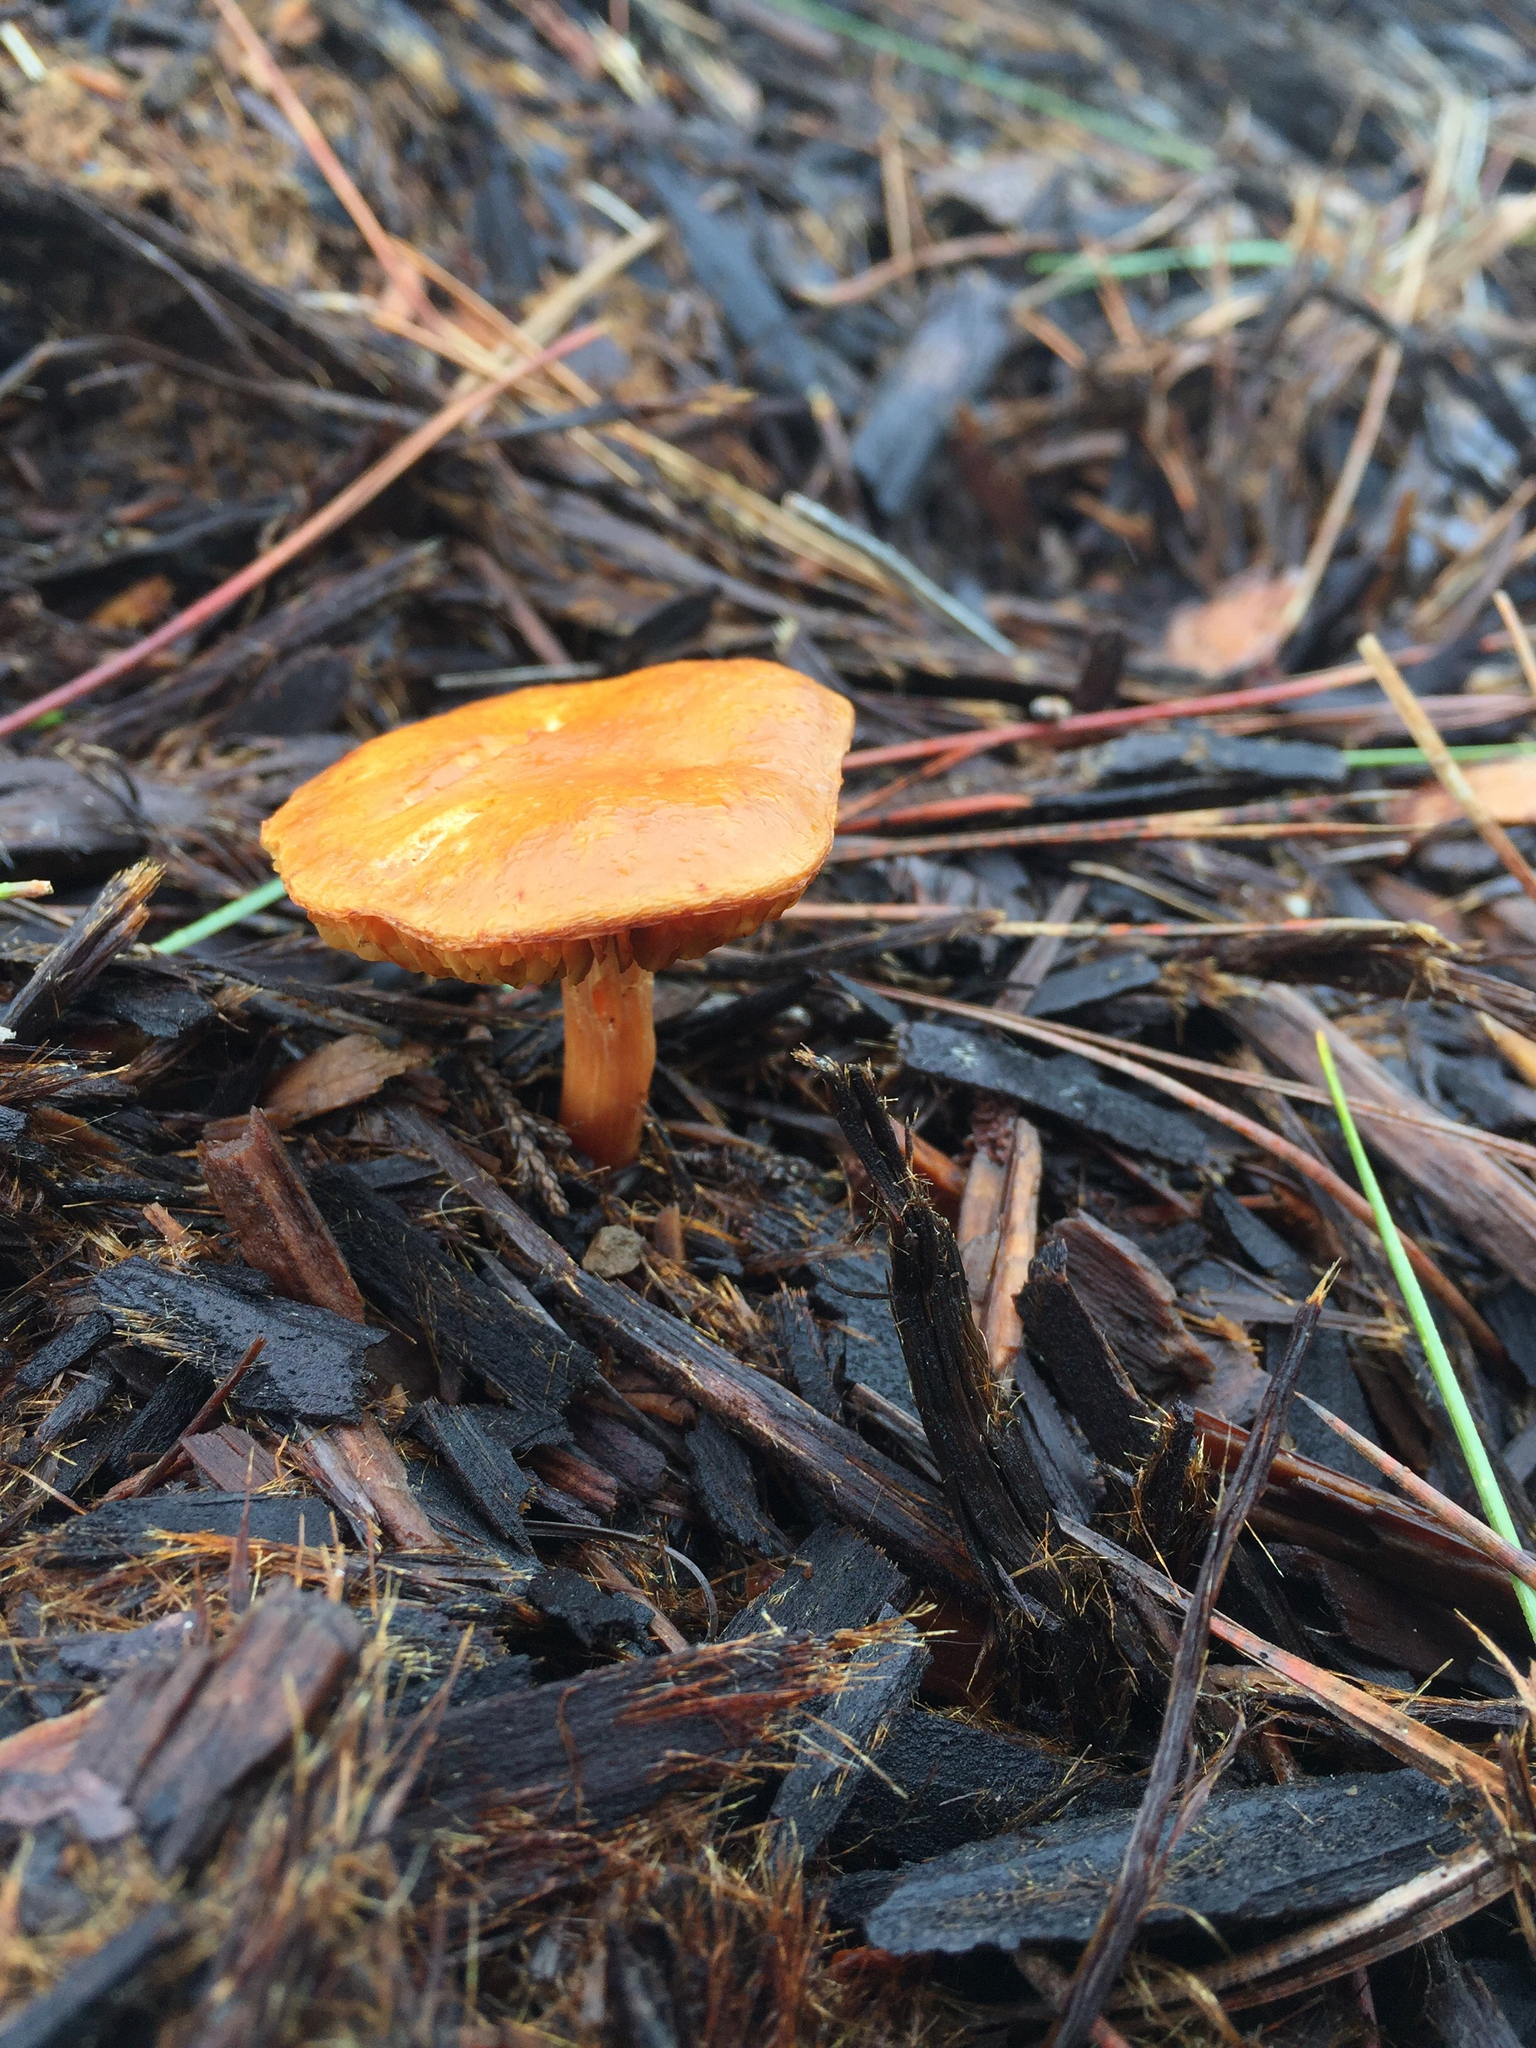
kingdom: Fungi
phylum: Basidiomycota
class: Agaricomycetes
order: Agaricales
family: Hymenogastraceae
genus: Gymnopilus
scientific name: Gymnopilus sapineus
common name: Scaly rustgill
